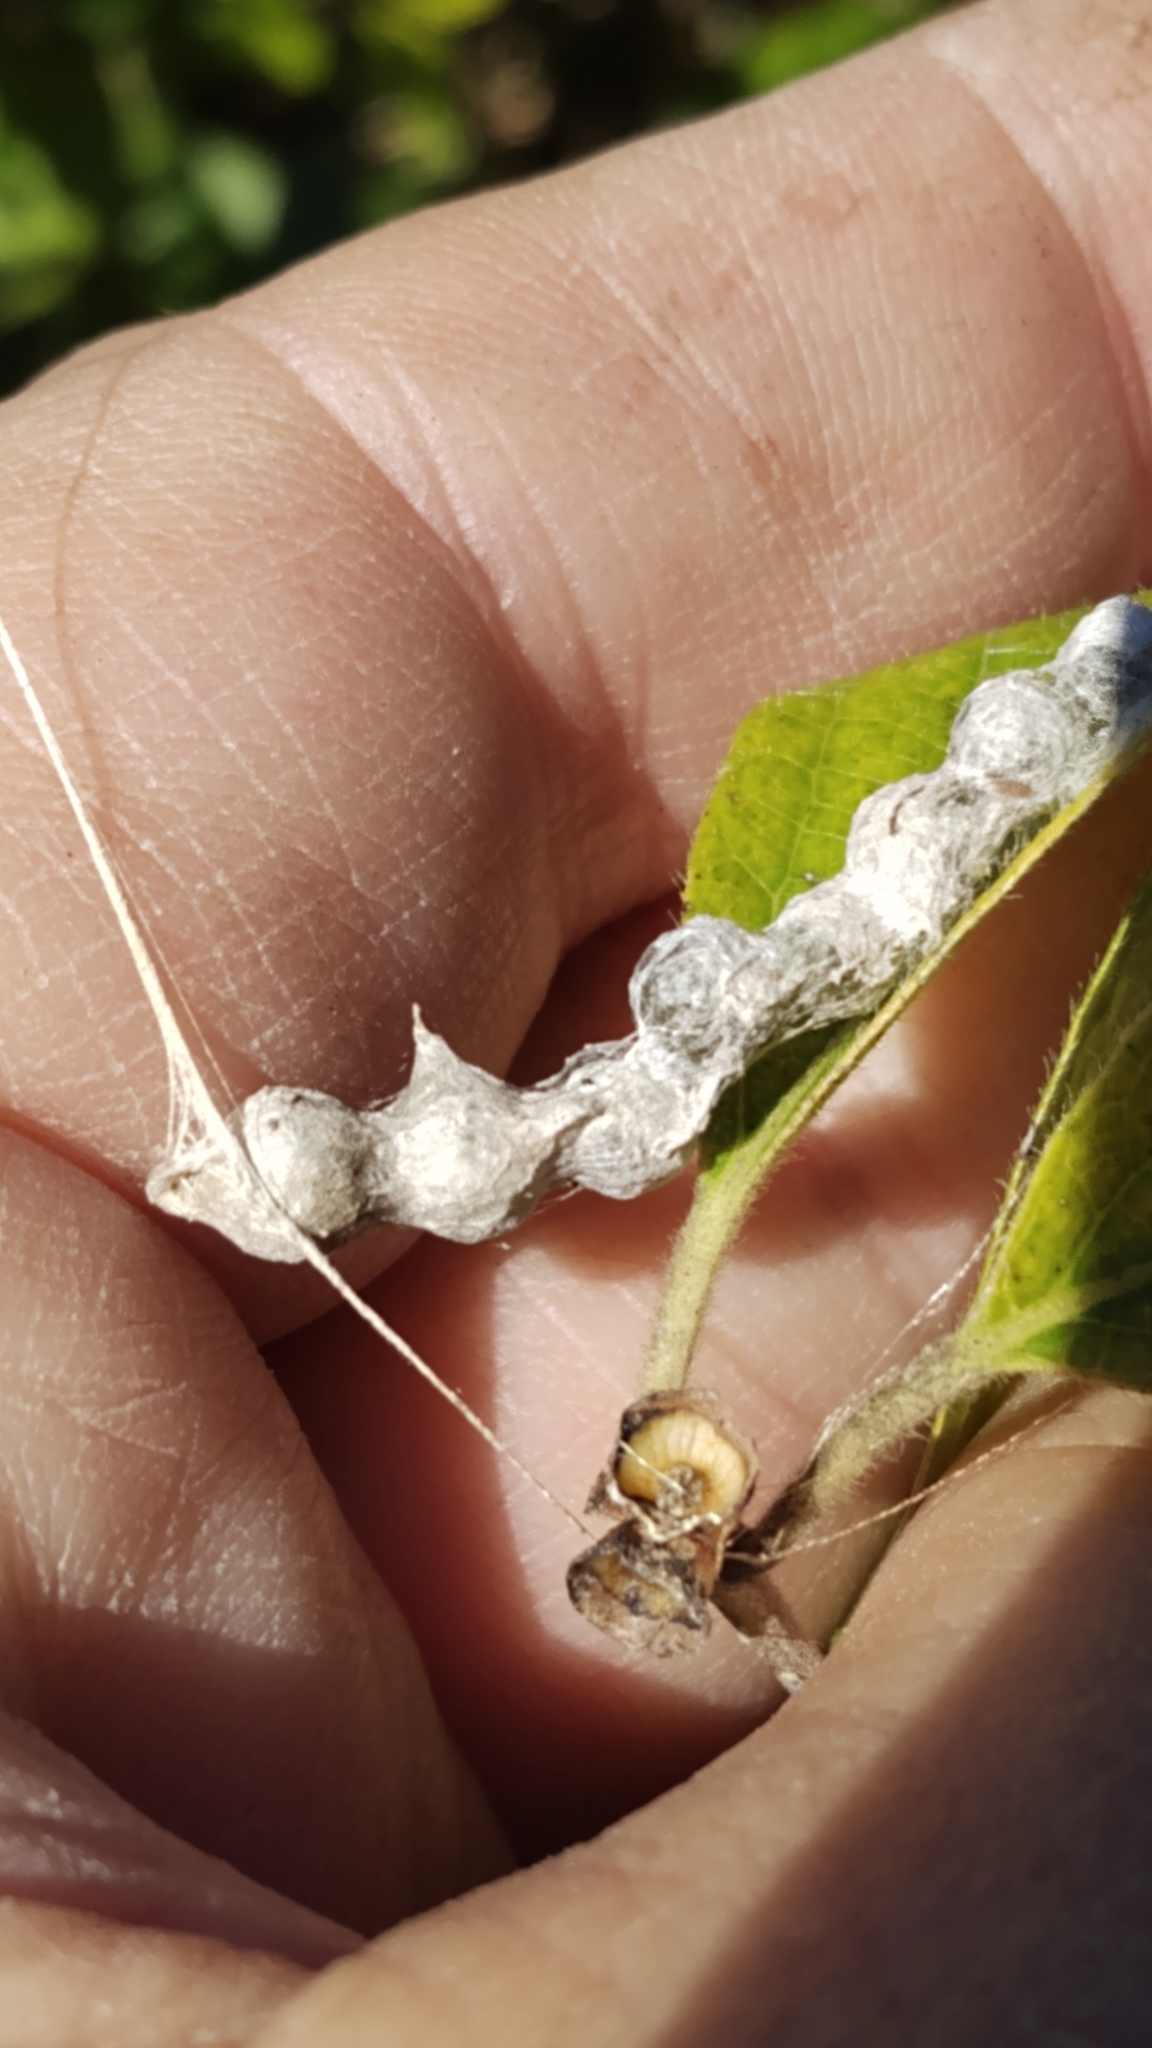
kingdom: Animalia
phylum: Arthropoda
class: Arachnida
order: Araneae
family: Araneidae
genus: Mecynogea
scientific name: Mecynogea lemniscata
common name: Orb weavers
